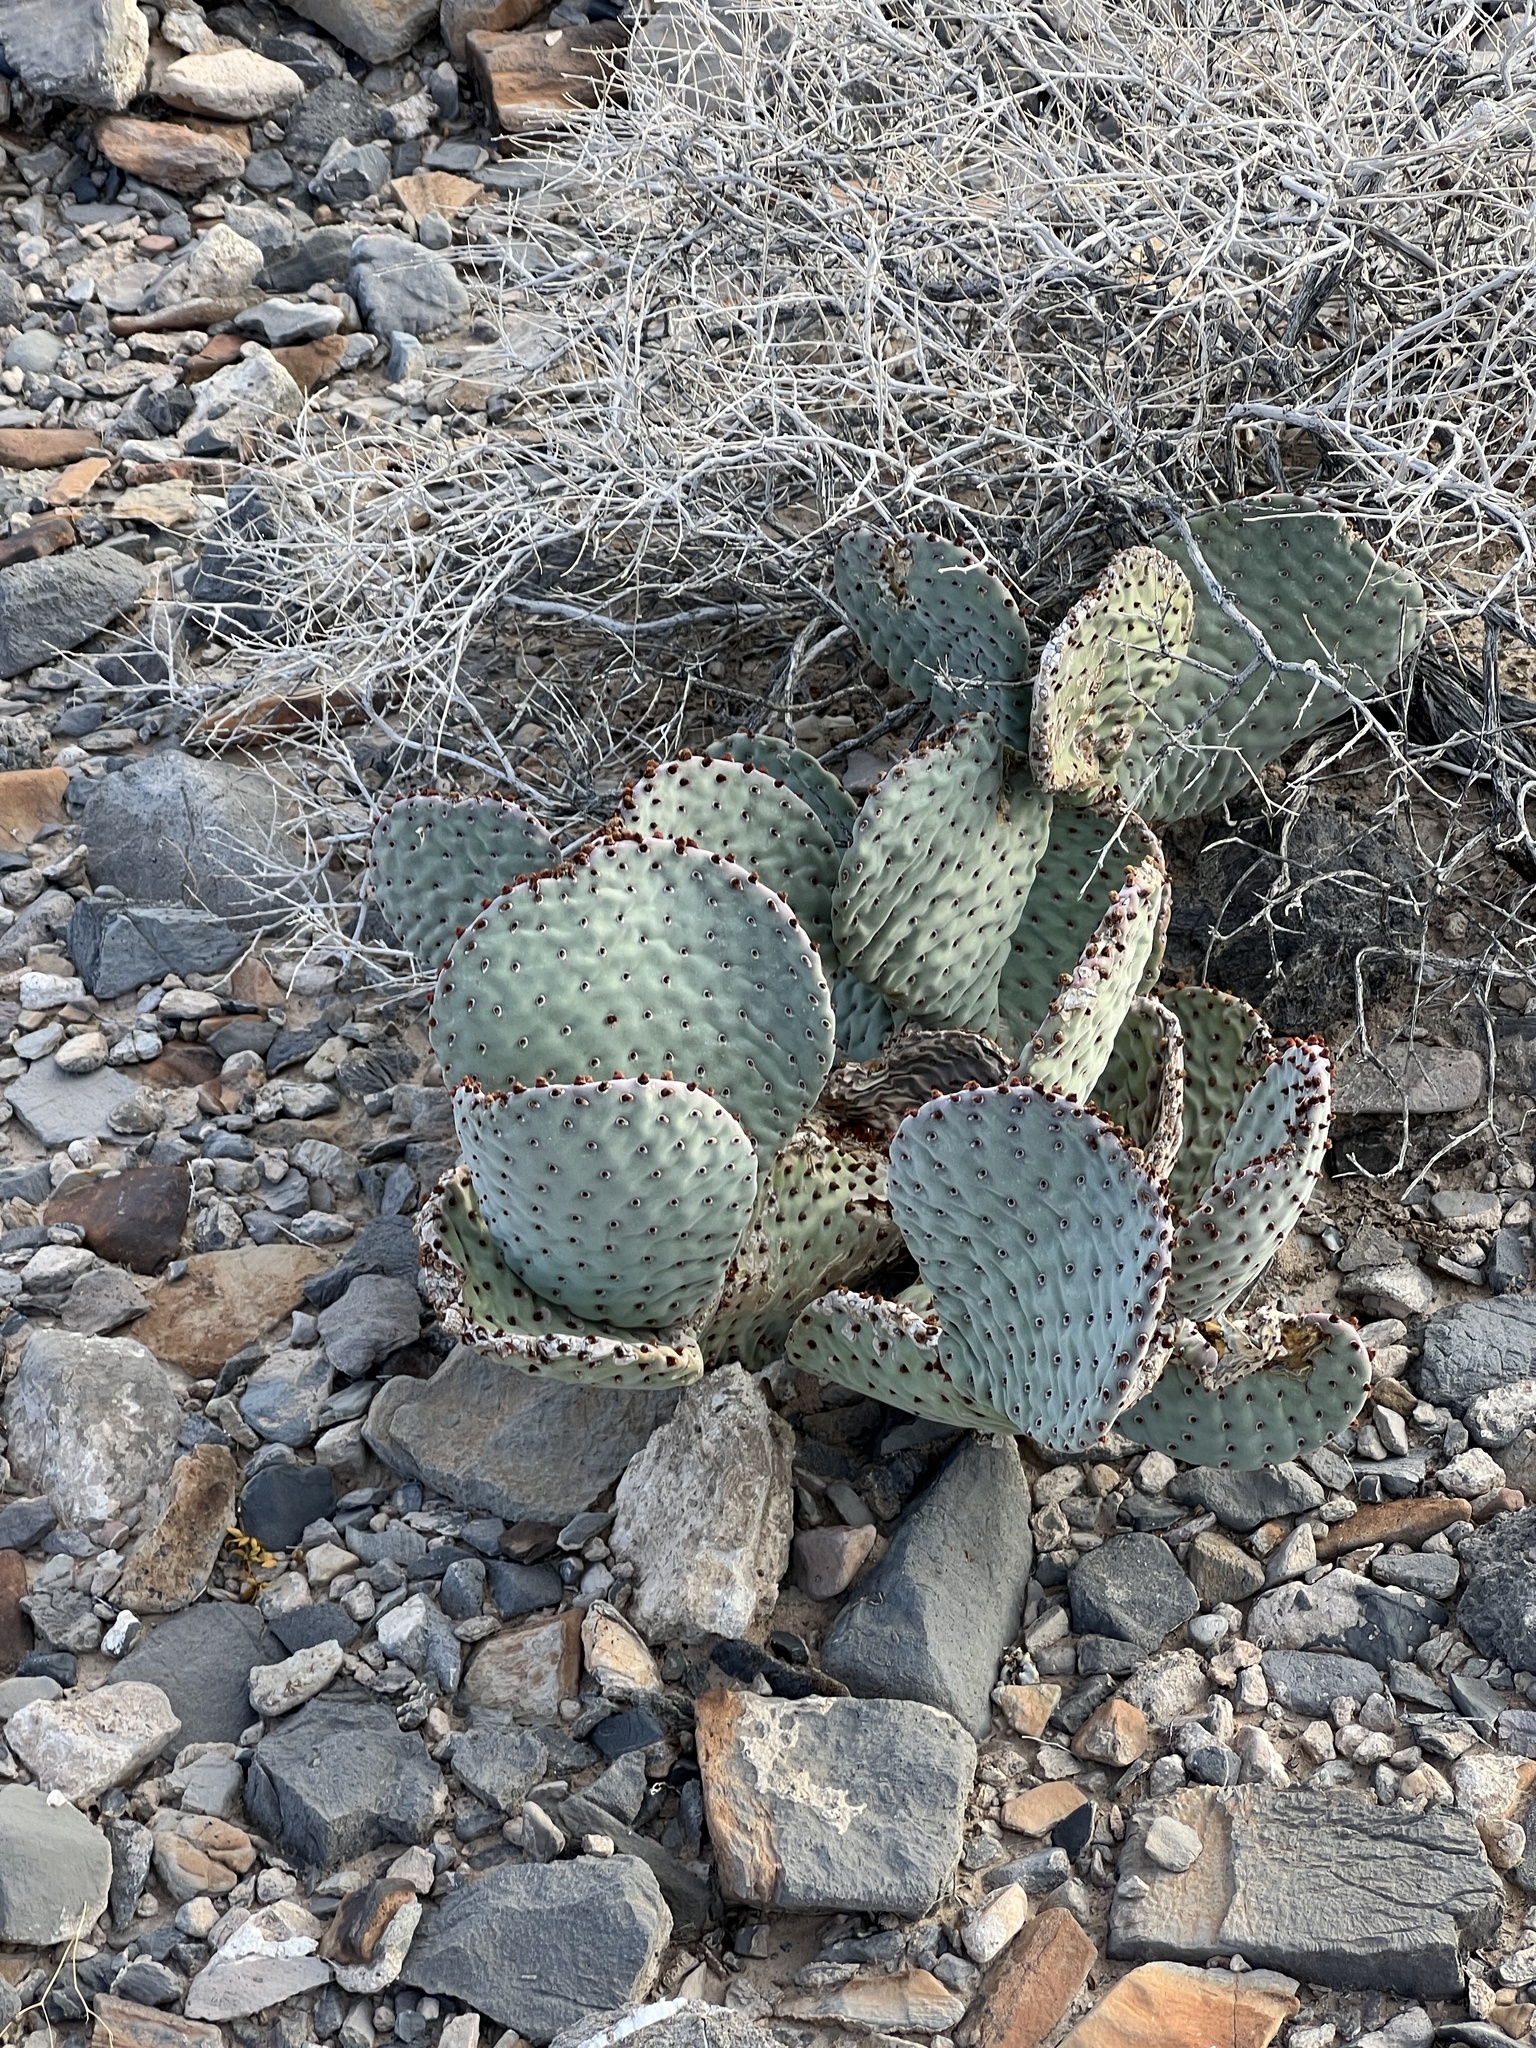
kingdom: Plantae
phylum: Tracheophyta
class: Magnoliopsida
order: Caryophyllales
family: Cactaceae
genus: Opuntia
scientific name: Opuntia basilaris
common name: Beavertail prickly-pear
